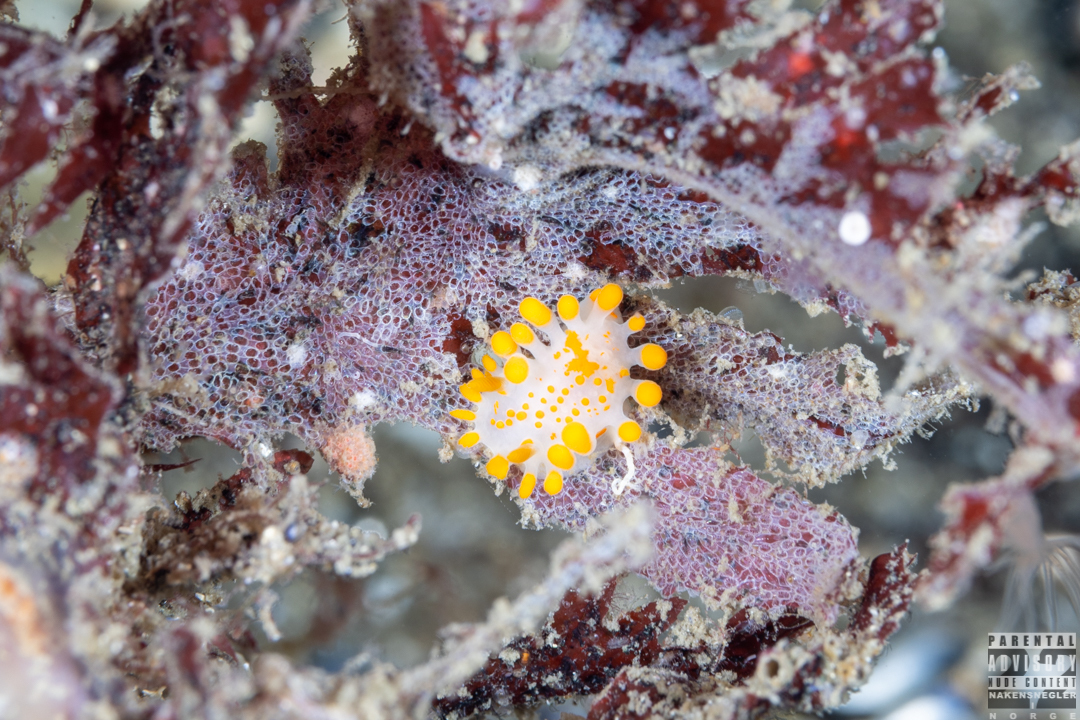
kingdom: Animalia
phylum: Mollusca
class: Gastropoda
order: Nudibranchia
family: Polyceridae
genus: Limacia
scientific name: Limacia clavigera
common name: Orange-clubbed sea slug
